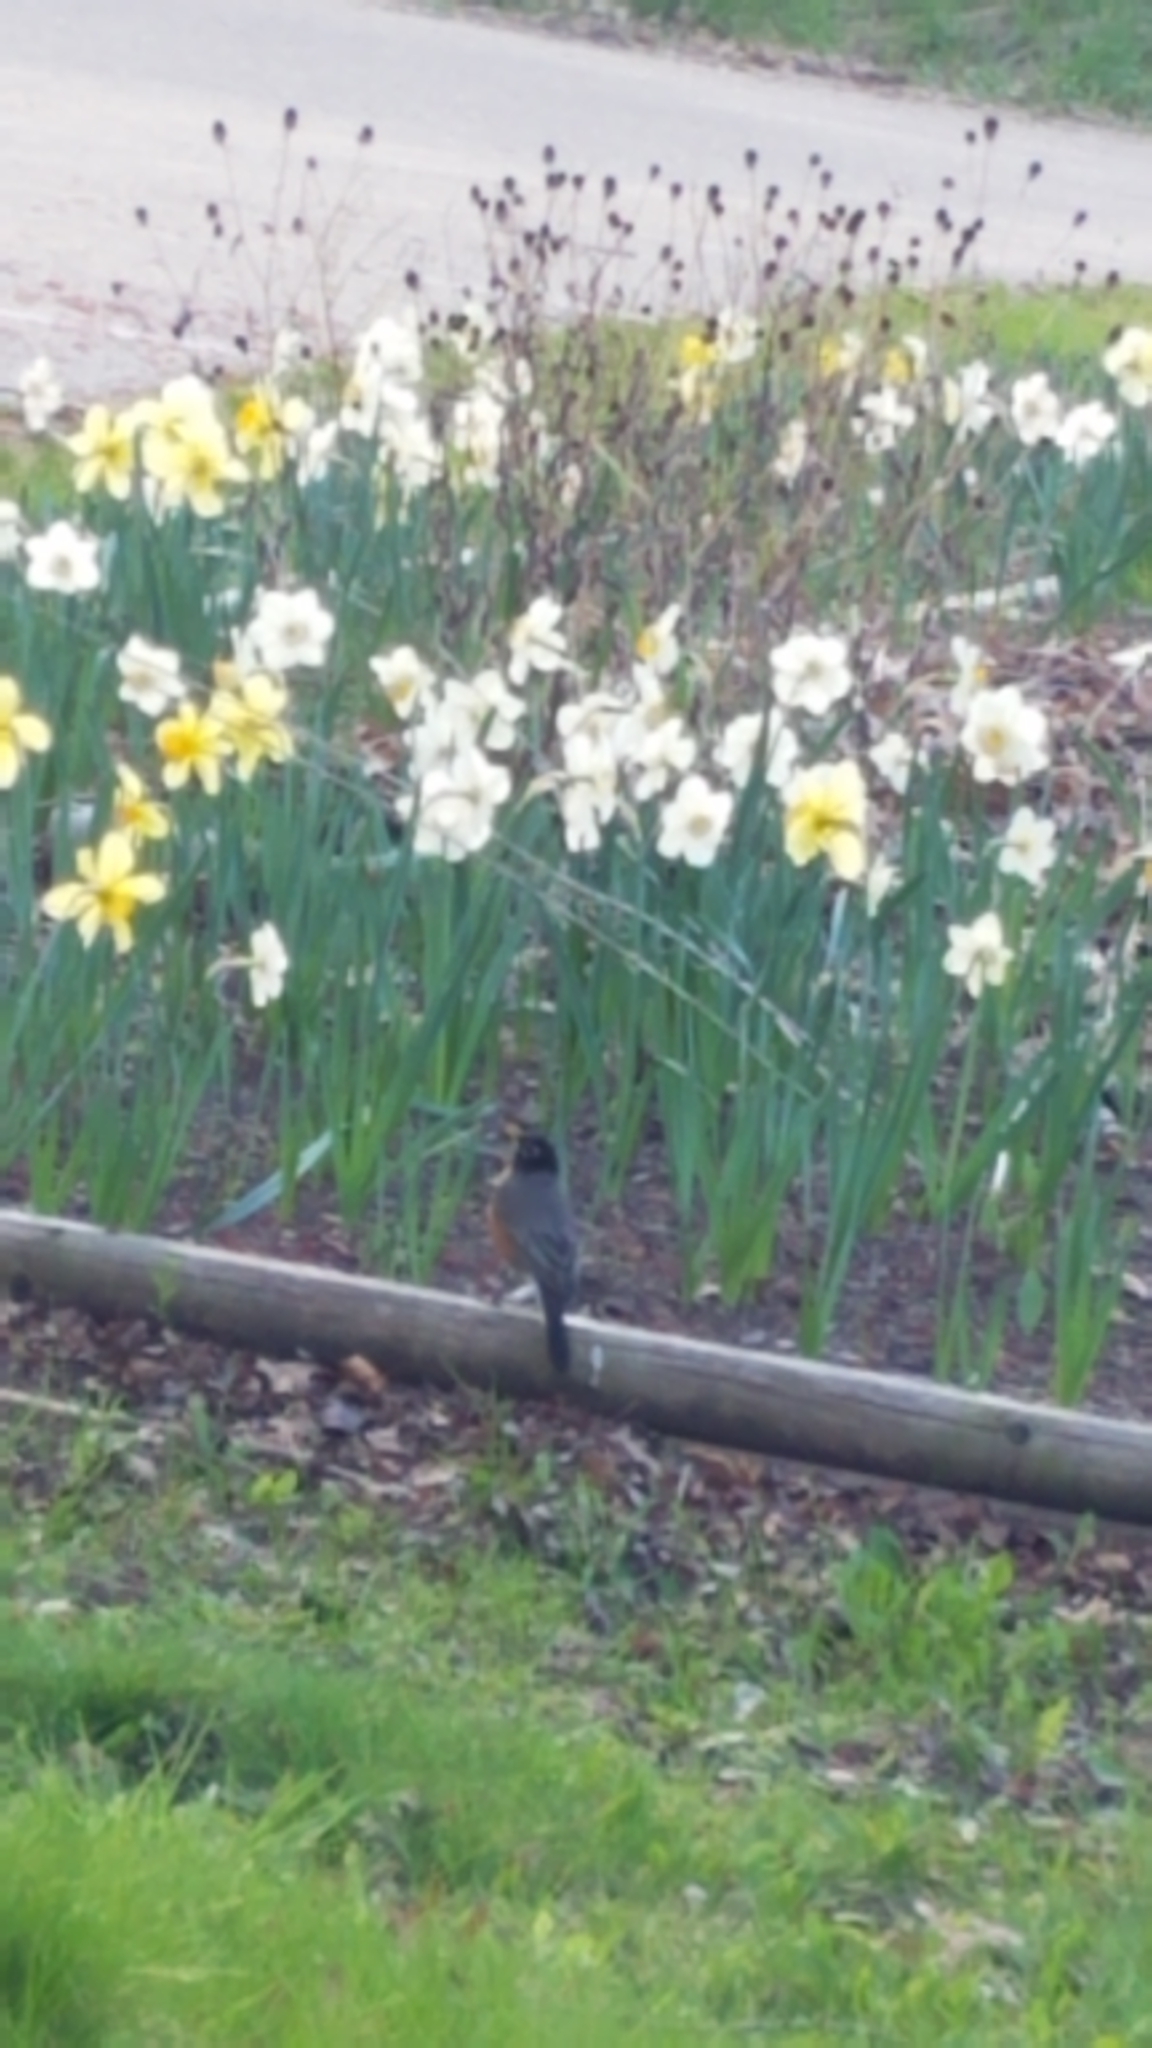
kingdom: Animalia
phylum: Chordata
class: Aves
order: Passeriformes
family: Turdidae
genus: Turdus
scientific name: Turdus migratorius
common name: American robin
